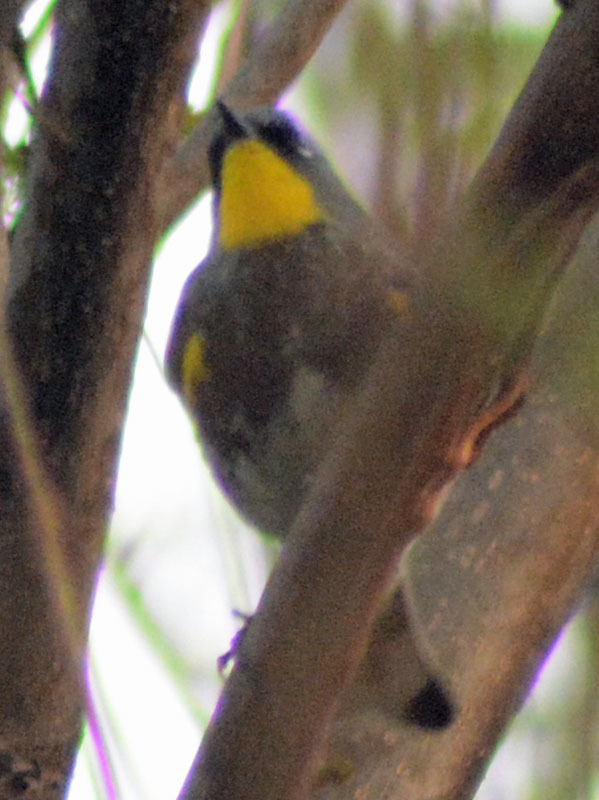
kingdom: Animalia
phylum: Chordata
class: Aves
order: Passeriformes
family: Parulidae
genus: Setophaga
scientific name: Setophaga auduboni
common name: Audubon's warbler
